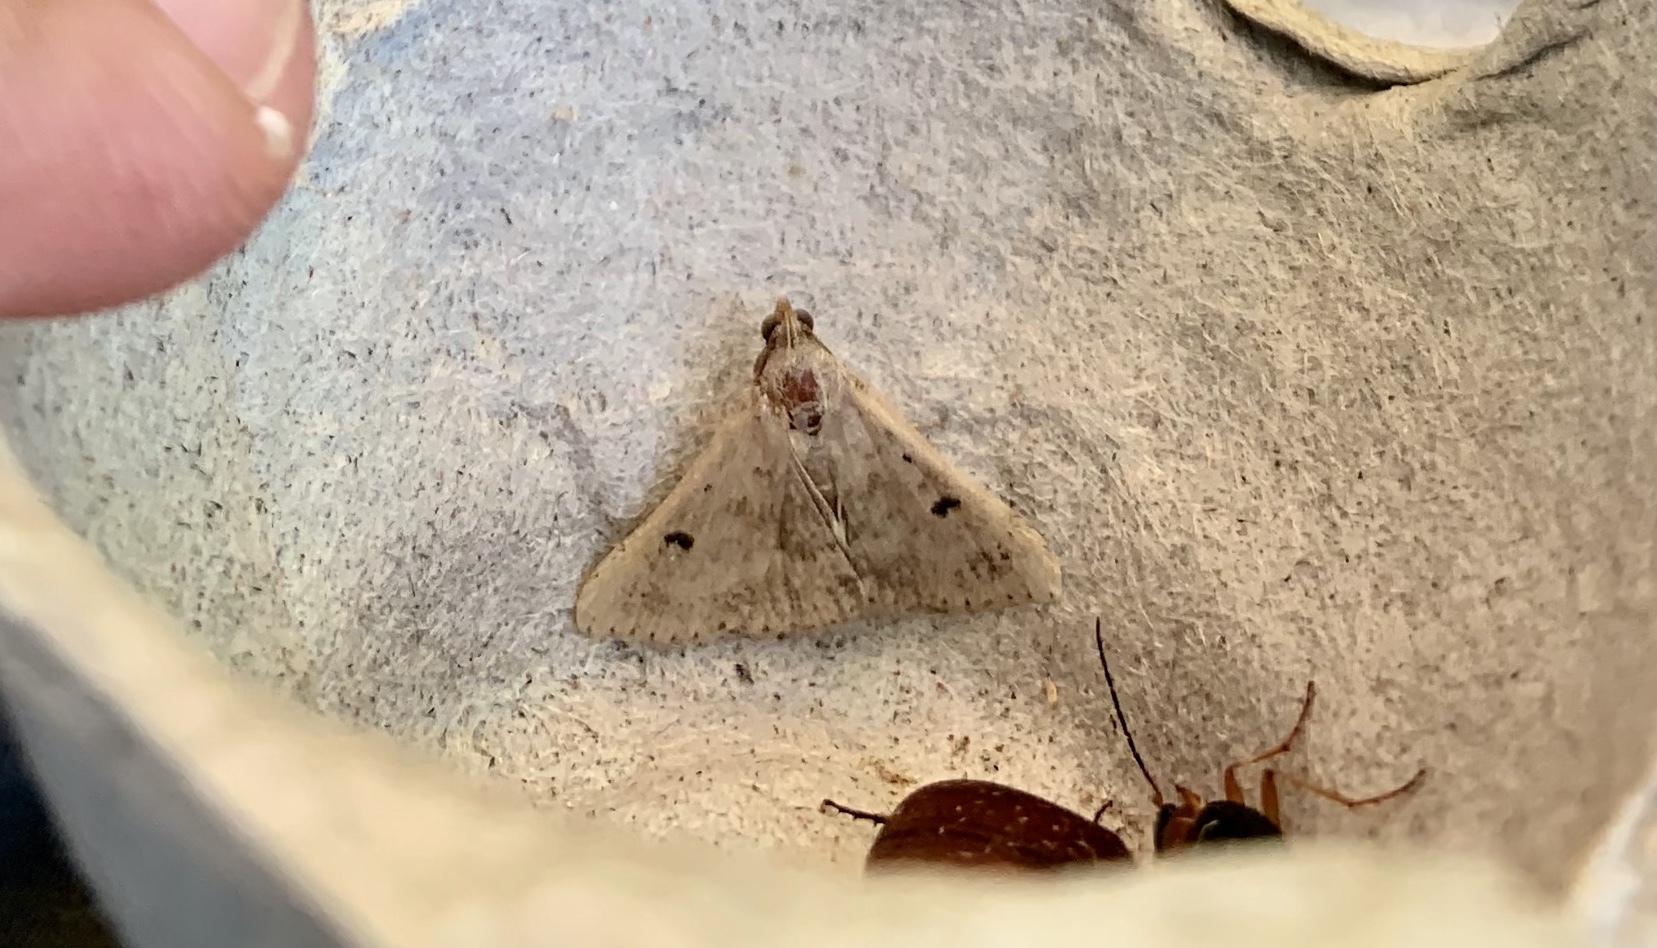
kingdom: Animalia
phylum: Arthropoda
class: Insecta
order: Lepidoptera
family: Erebidae
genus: Bleptina
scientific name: Bleptina caradrinalis
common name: Bent-winged owlet
